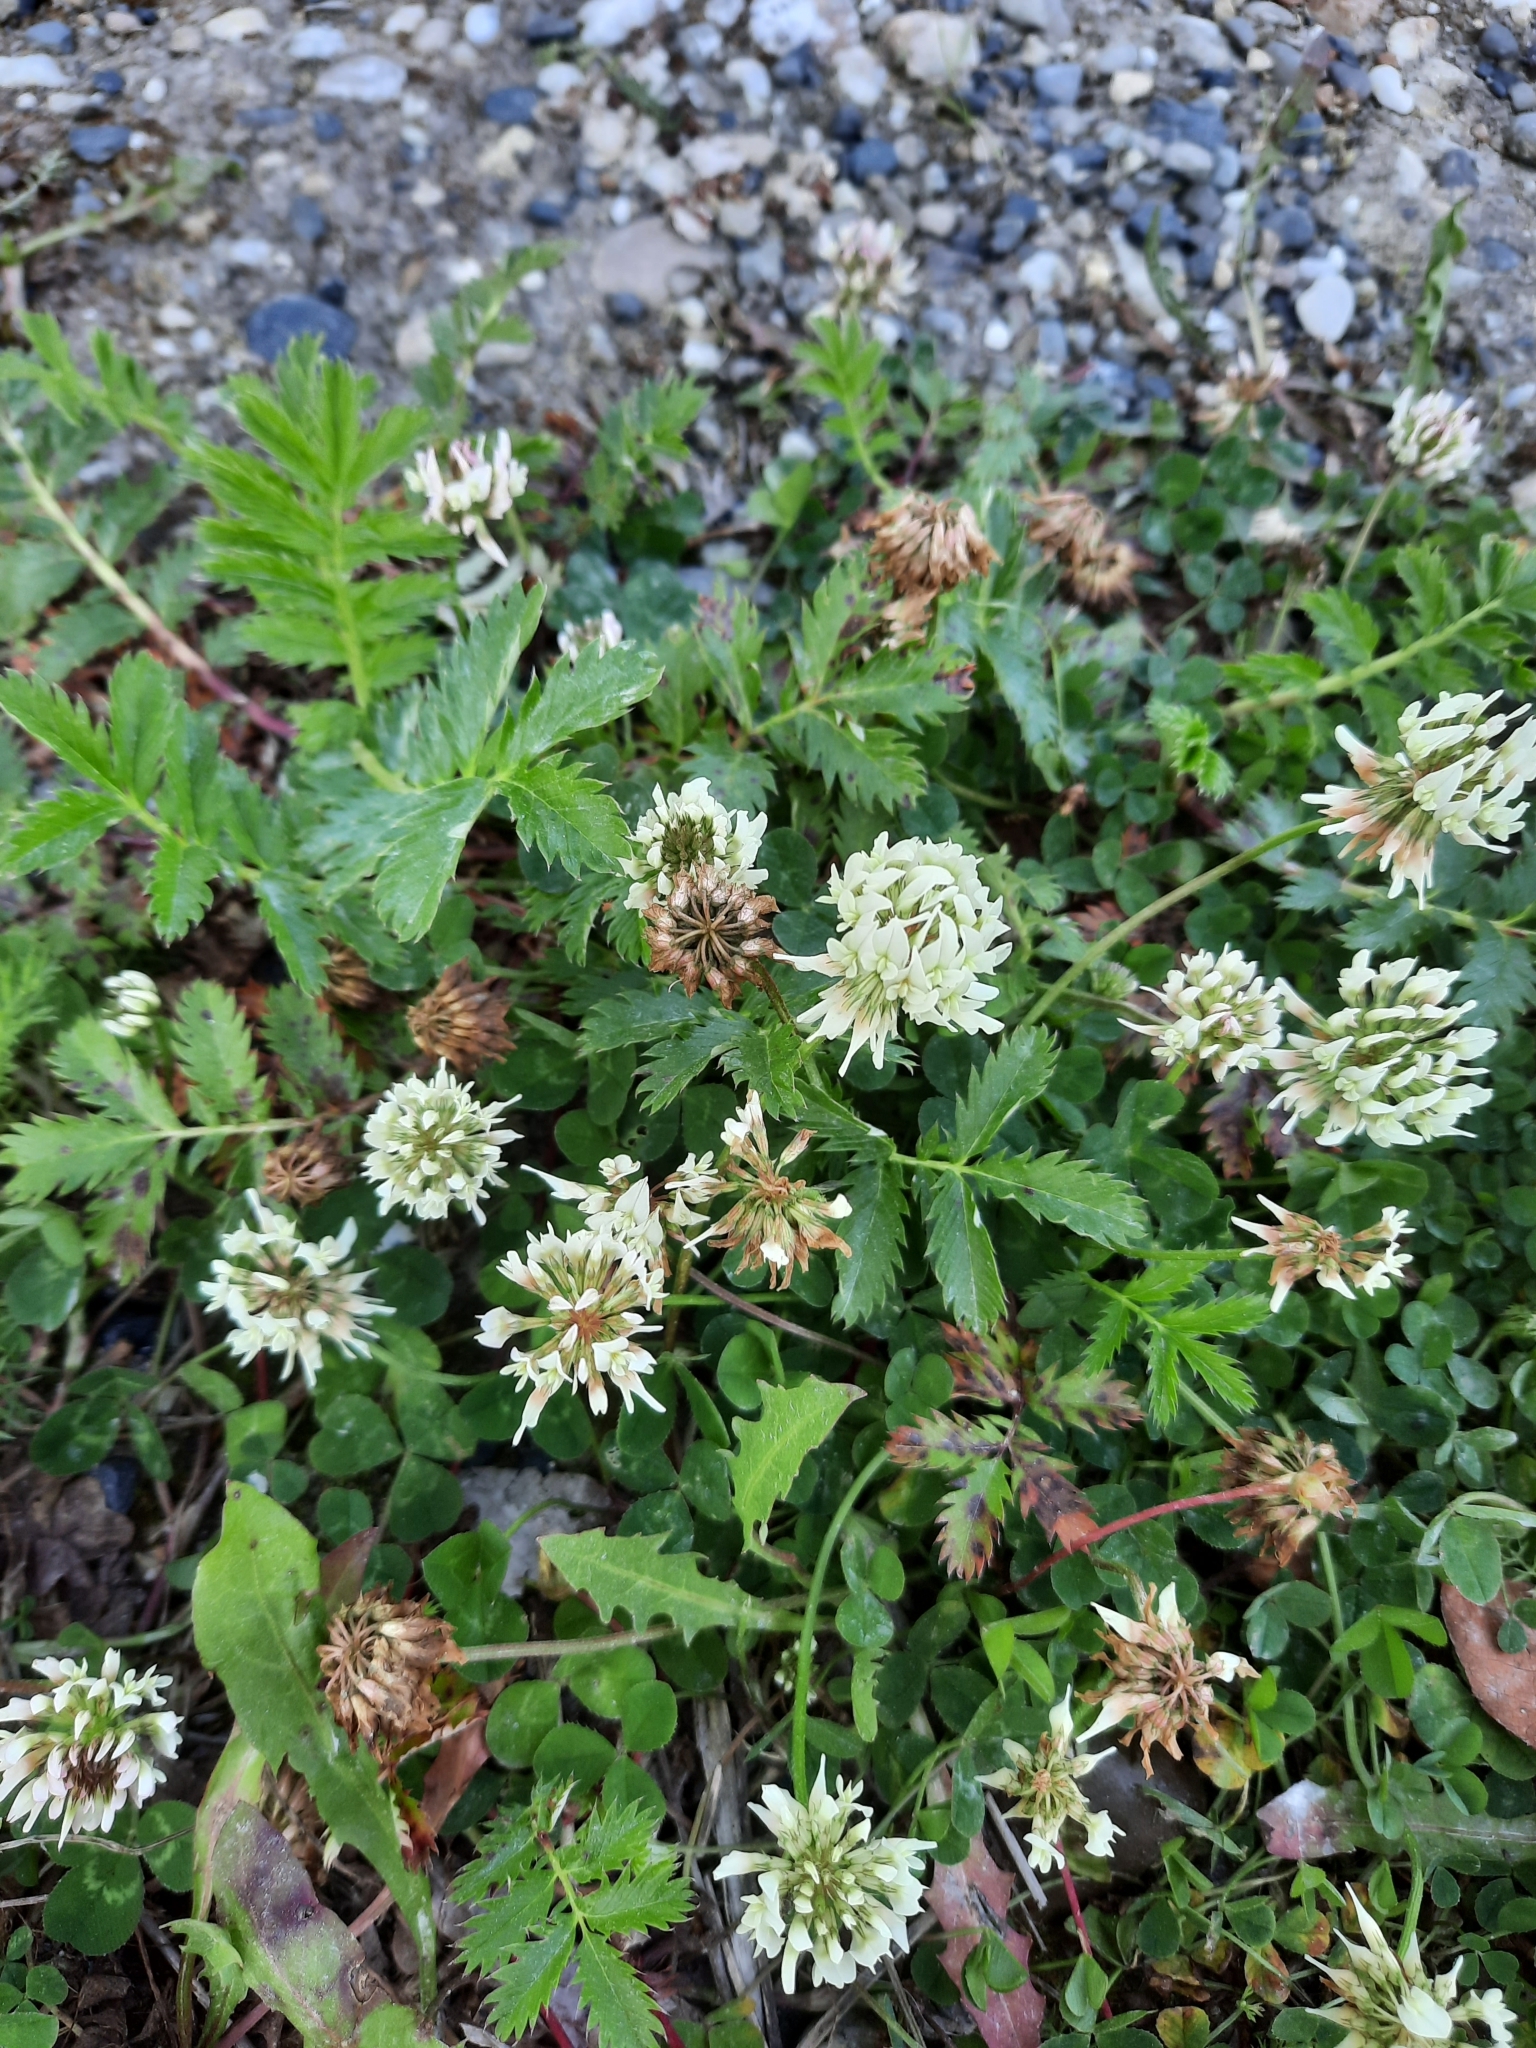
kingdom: Plantae
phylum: Tracheophyta
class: Magnoliopsida
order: Fabales
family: Fabaceae
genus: Trifolium
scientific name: Trifolium repens
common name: White clover
